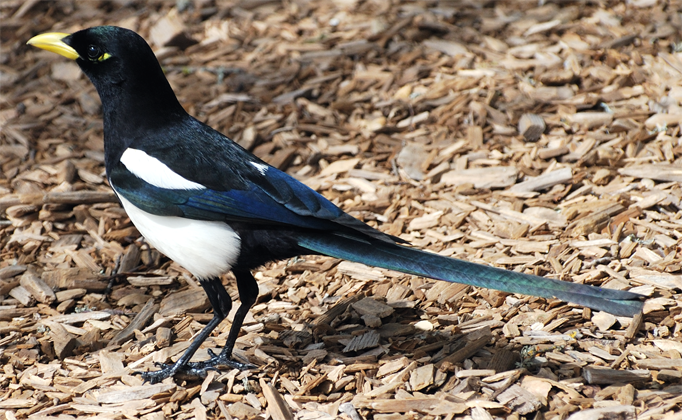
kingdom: Animalia
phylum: Chordata
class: Aves
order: Passeriformes
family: Corvidae
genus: Pica
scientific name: Pica nuttalli
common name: Yellow-billed magpie
